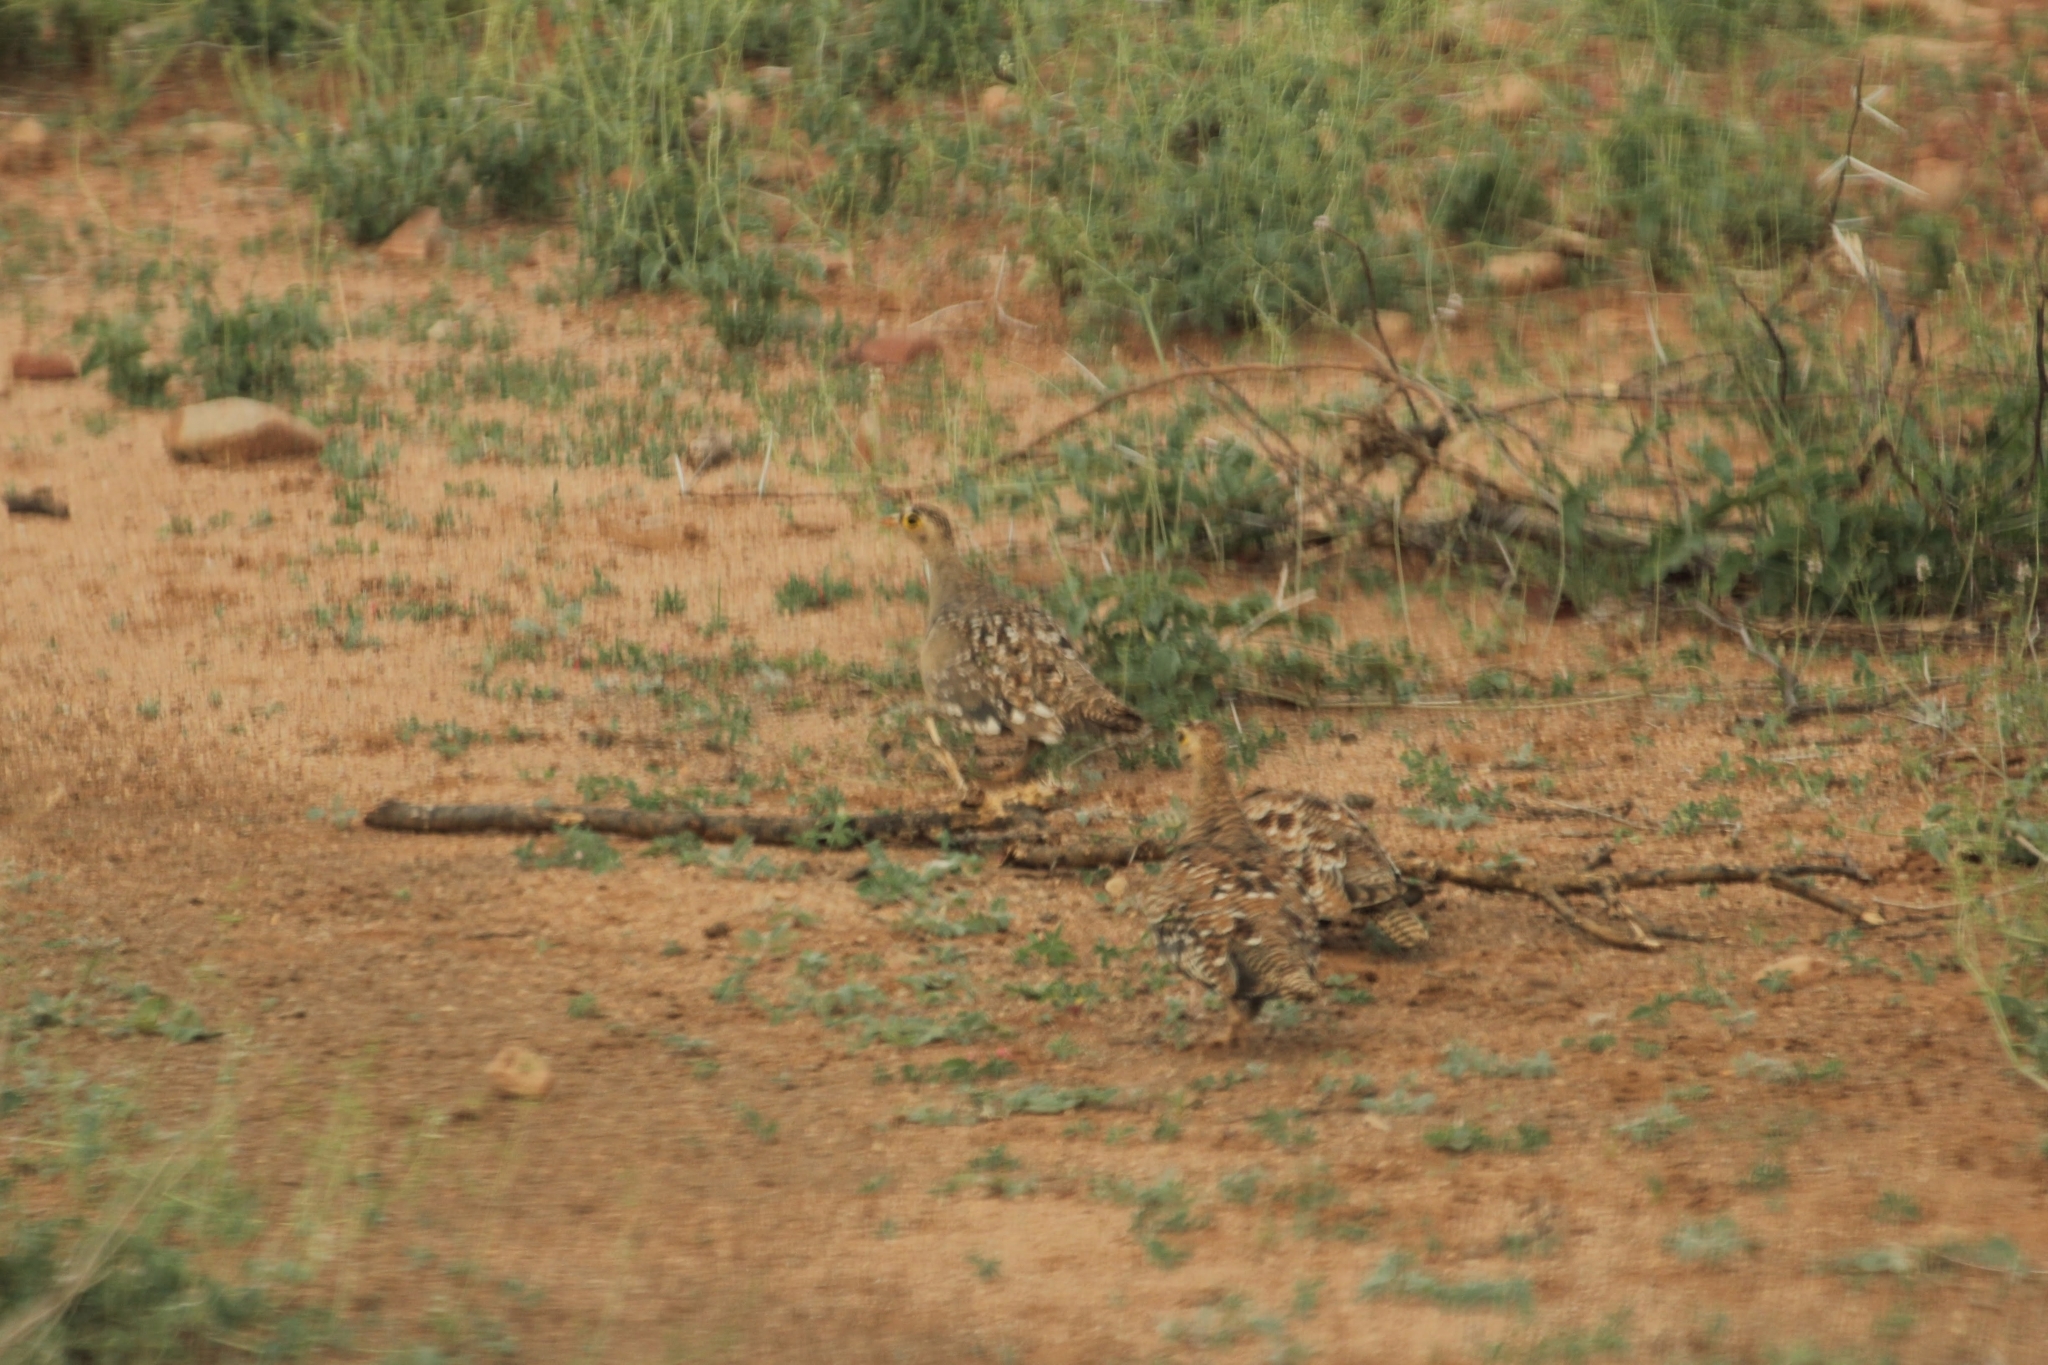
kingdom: Animalia
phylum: Chordata
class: Aves
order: Pteroclidiformes
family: Pteroclididae
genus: Pterocles
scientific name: Pterocles bicinctus
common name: Double-banded sandgrouse
